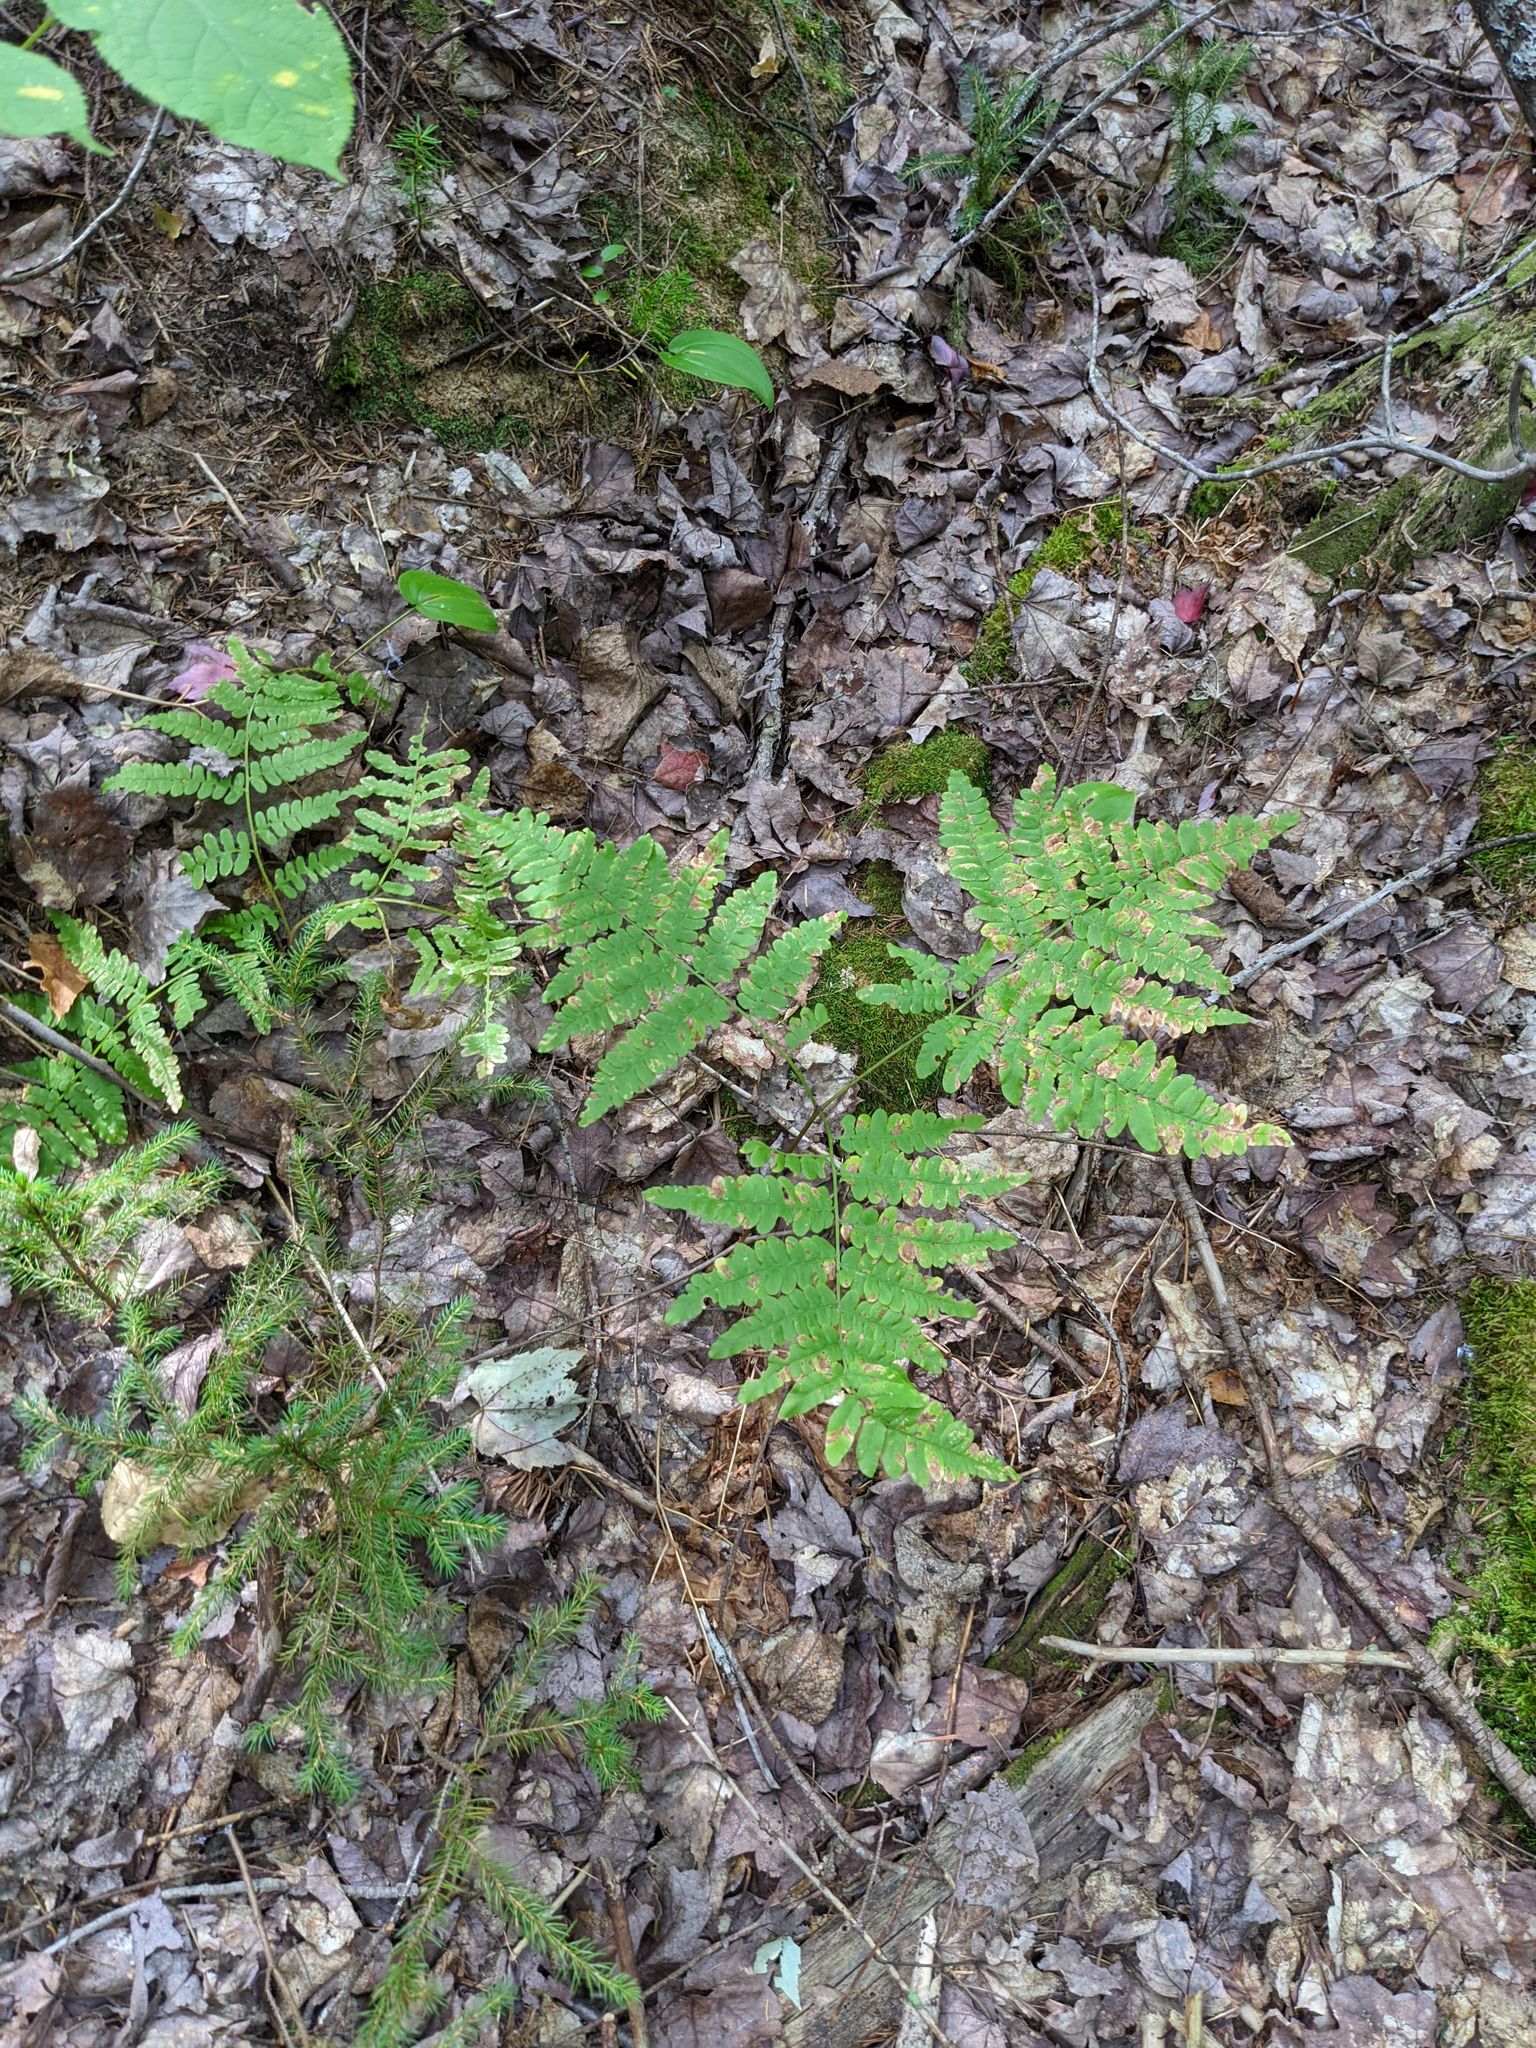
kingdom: Plantae
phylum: Tracheophyta
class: Polypodiopsida
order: Polypodiales
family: Dennstaedtiaceae
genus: Pteridium
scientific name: Pteridium aquilinum
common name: Bracken
